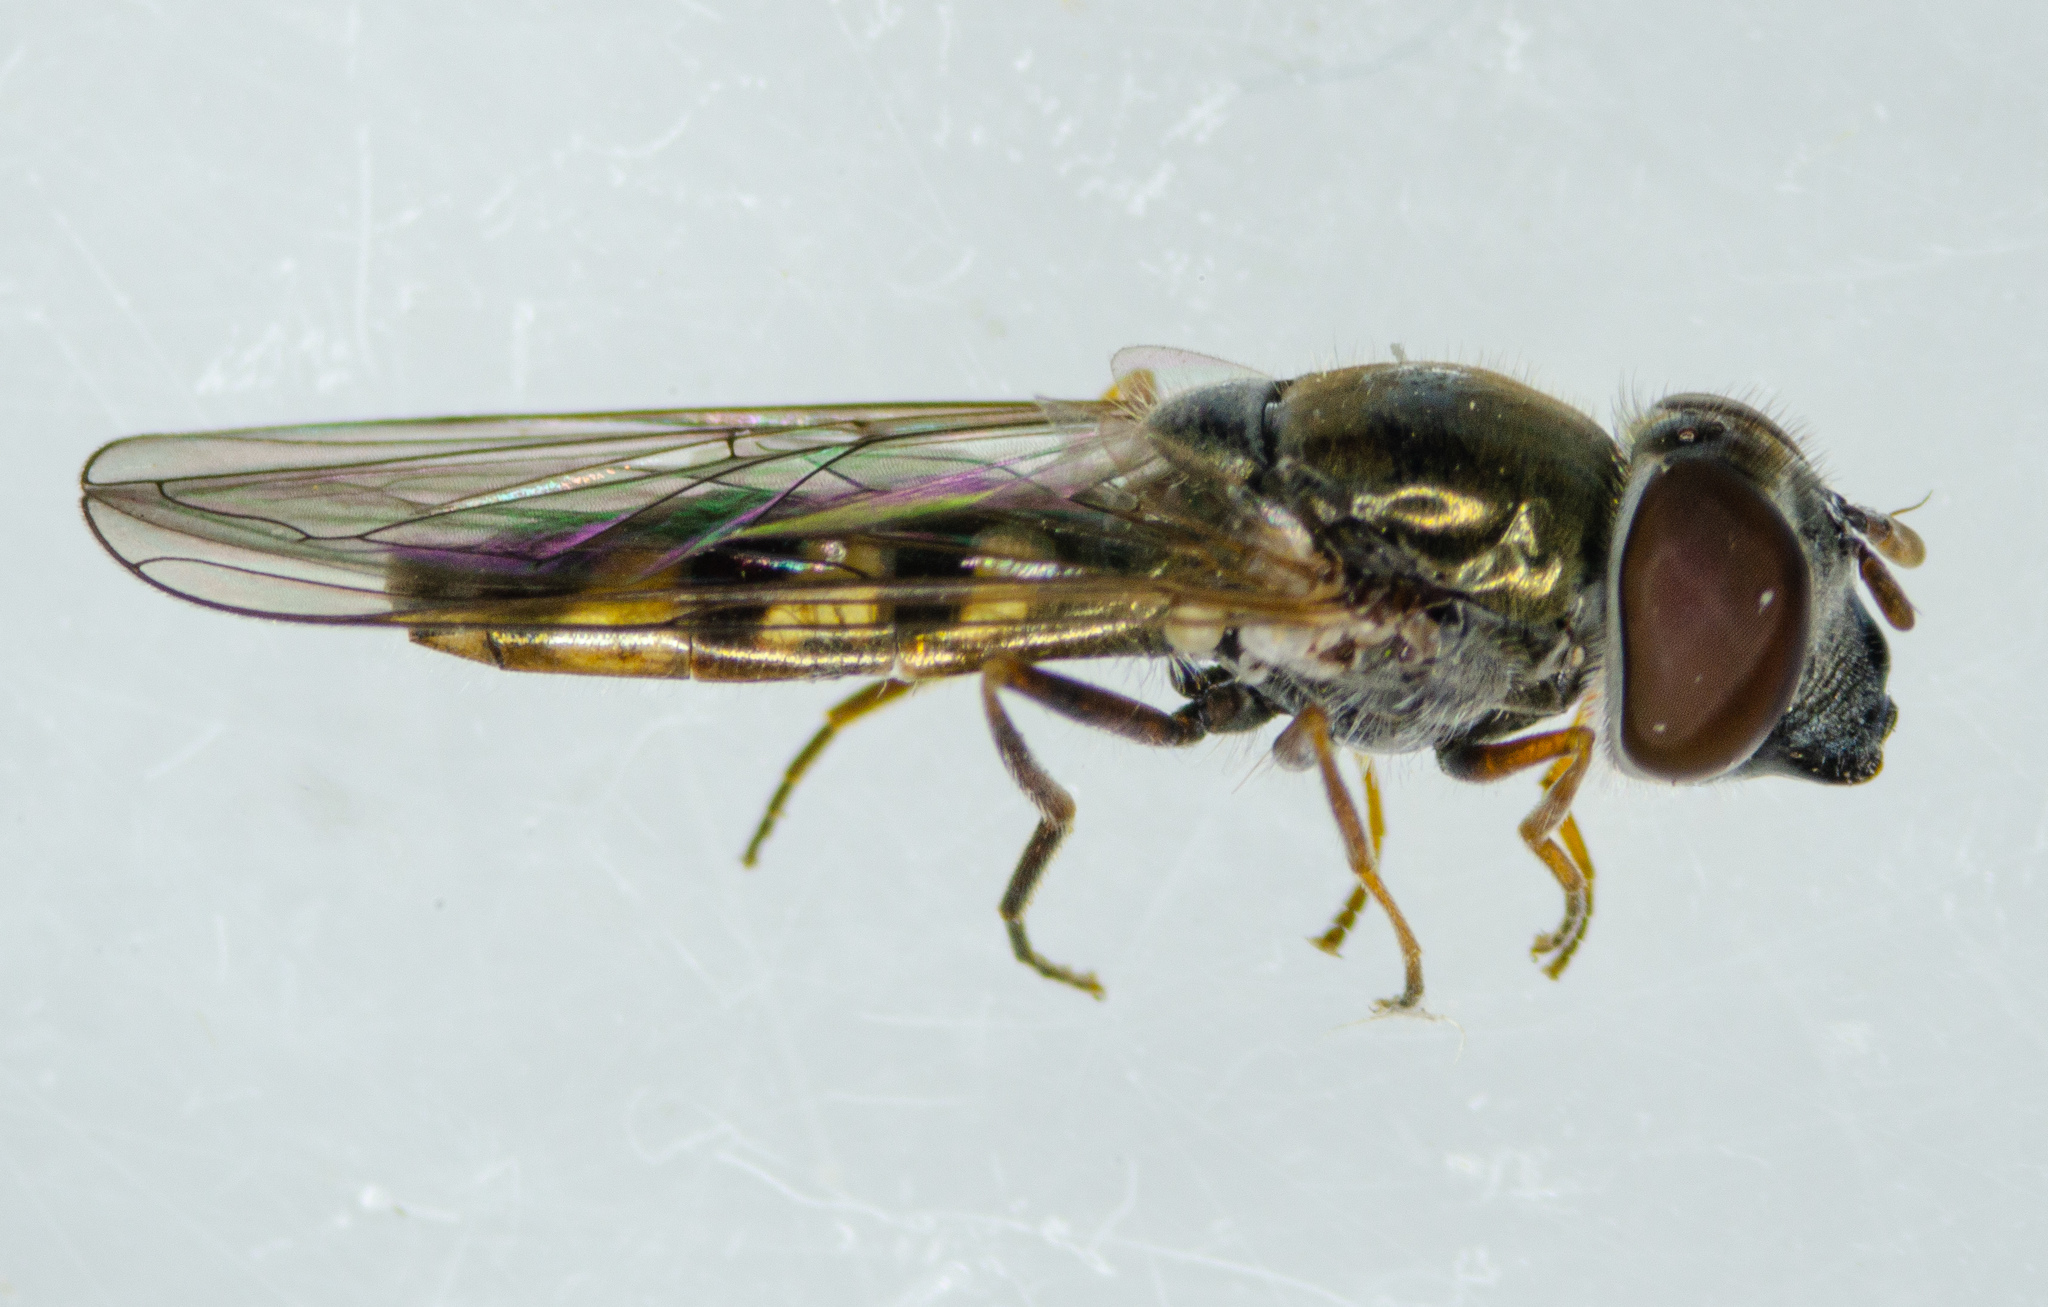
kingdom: Animalia
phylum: Arthropoda
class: Insecta
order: Diptera
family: Syrphidae
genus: Platycheirus
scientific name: Platycheirus trichopus
